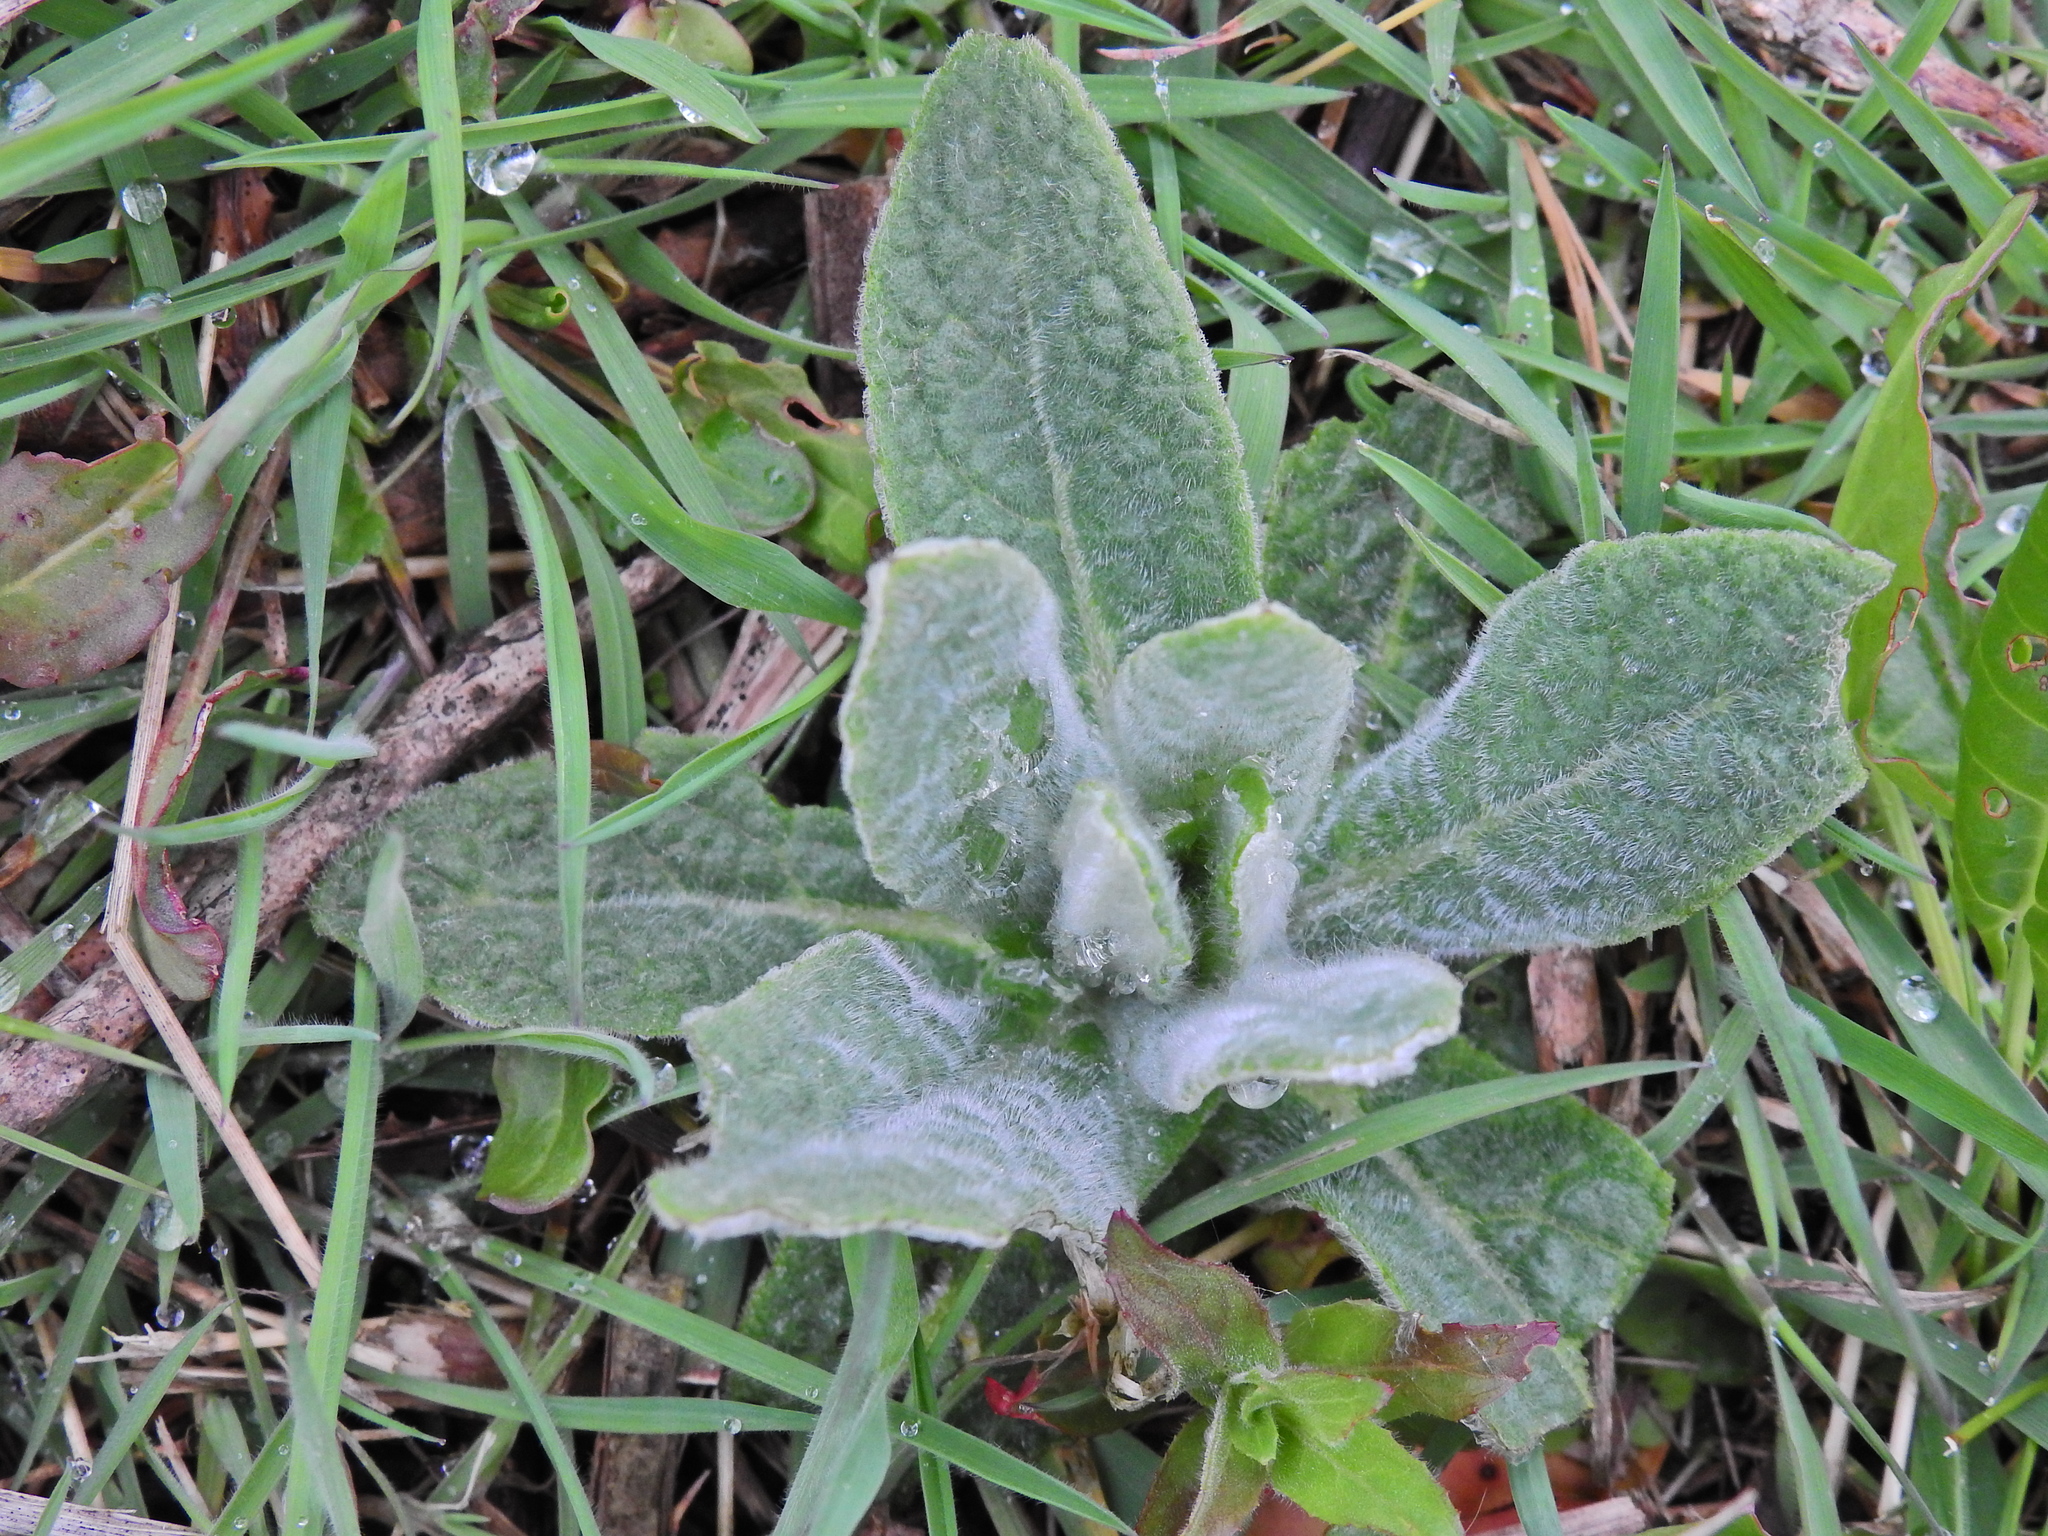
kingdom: Plantae
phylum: Tracheophyta
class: Magnoliopsida
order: Lamiales
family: Scrophulariaceae
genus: Verbascum
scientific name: Verbascum thapsus
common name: Common mullein
